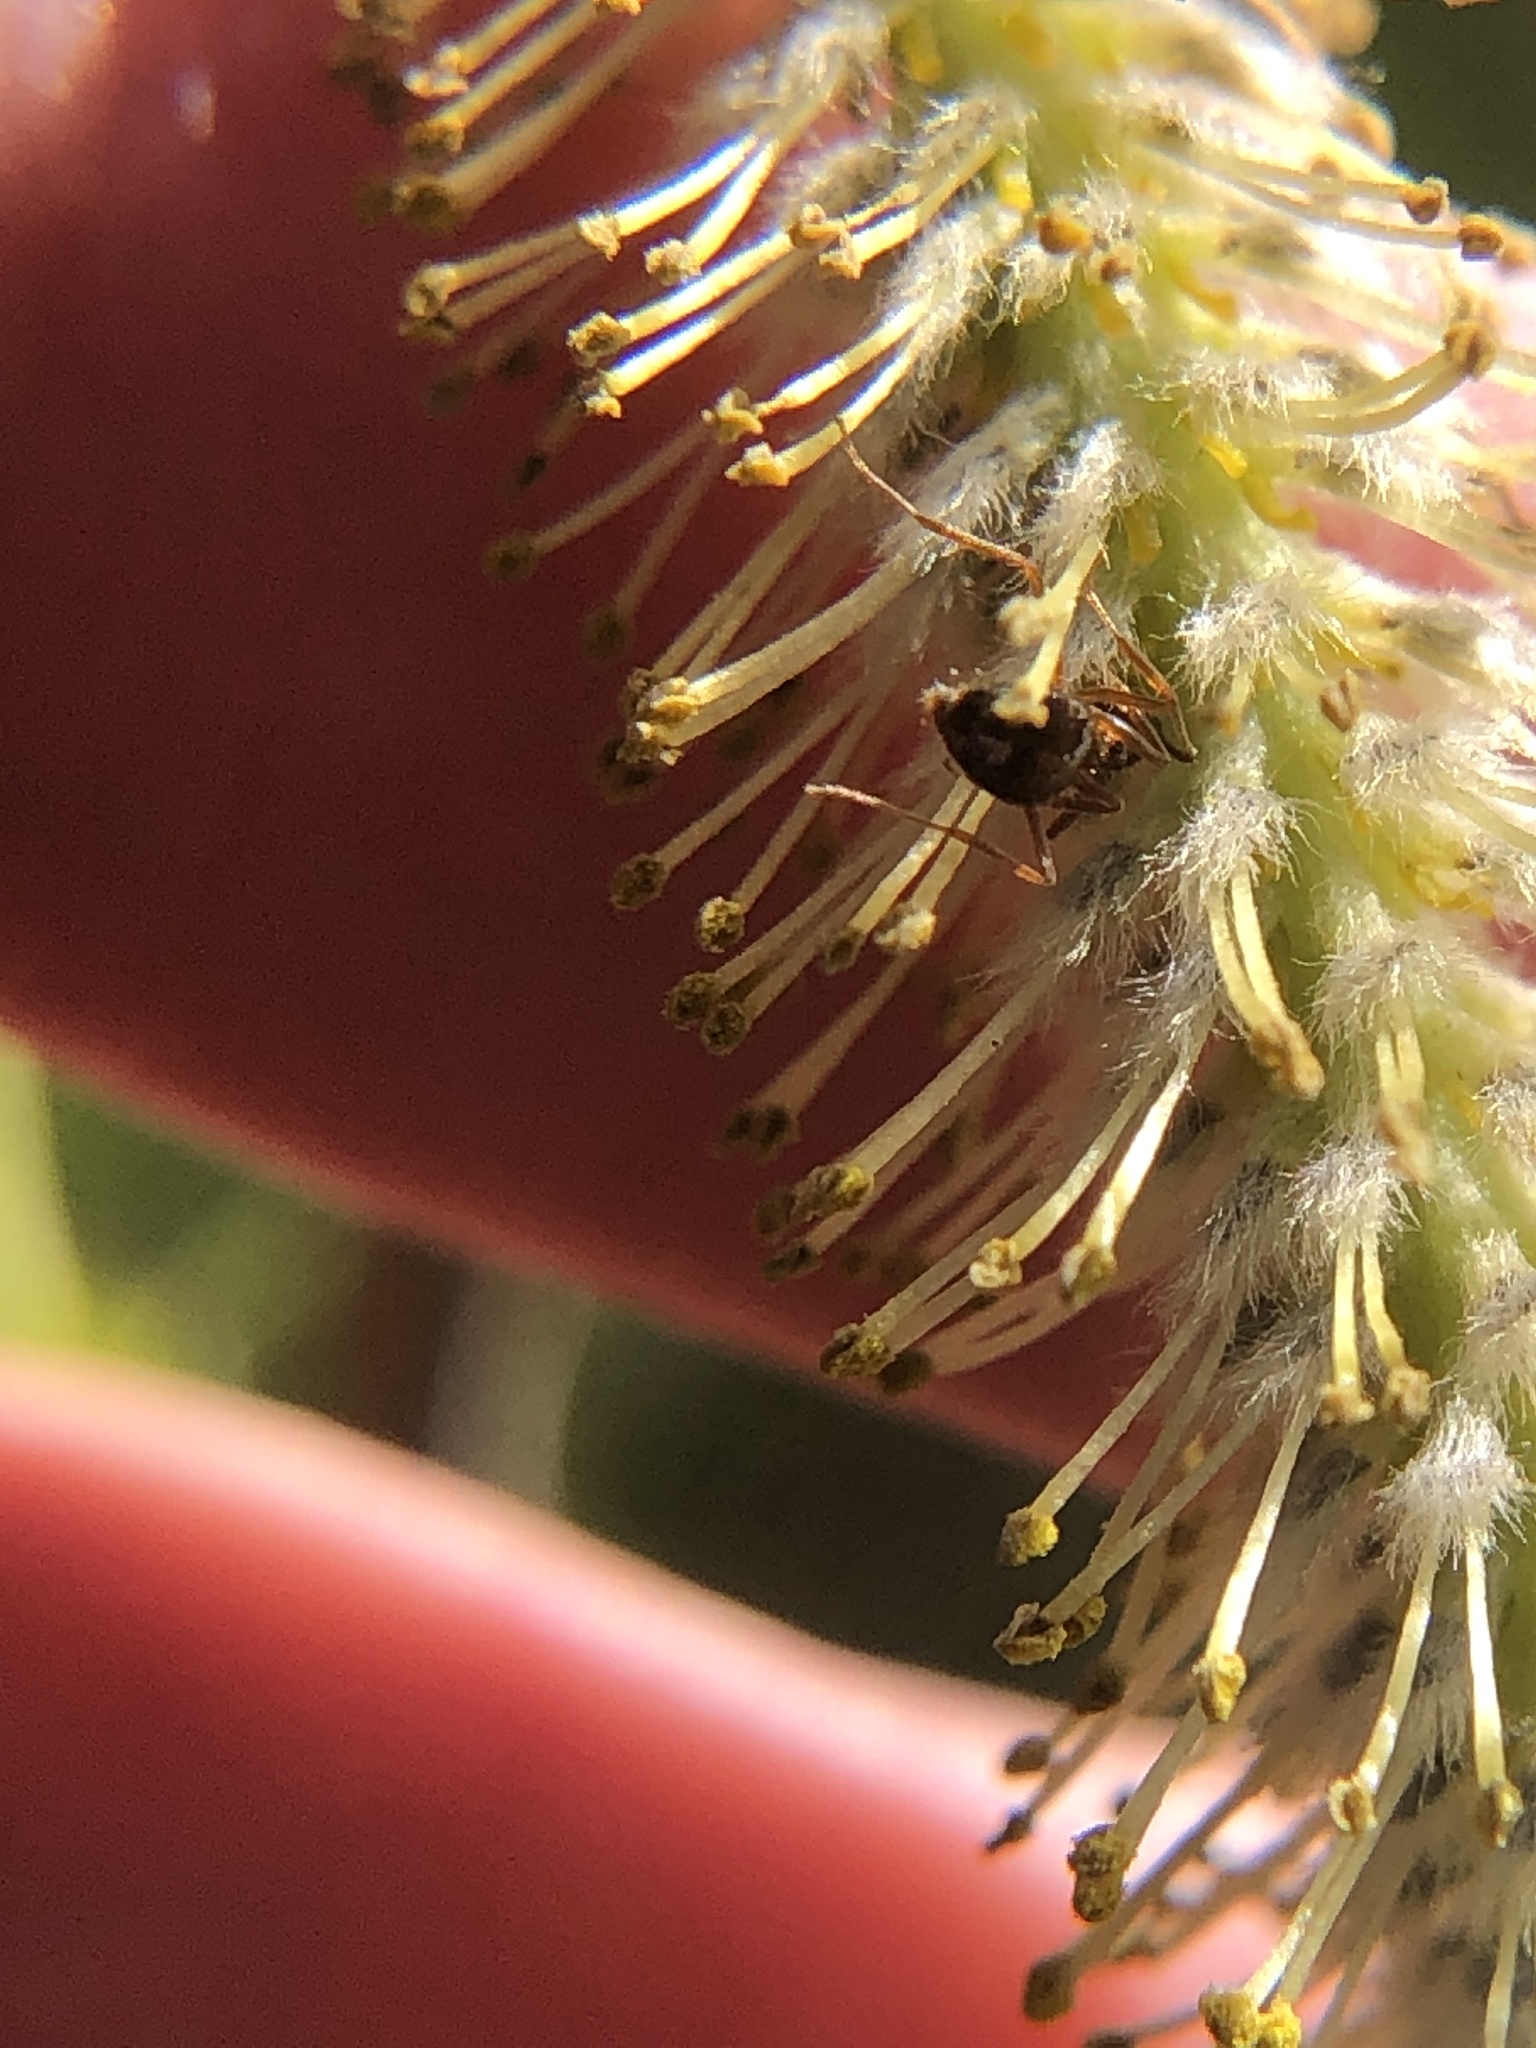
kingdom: Animalia
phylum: Arthropoda
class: Insecta
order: Hymenoptera
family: Formicidae
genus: Prenolepis
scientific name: Prenolepis imparis
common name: Small honey ant
